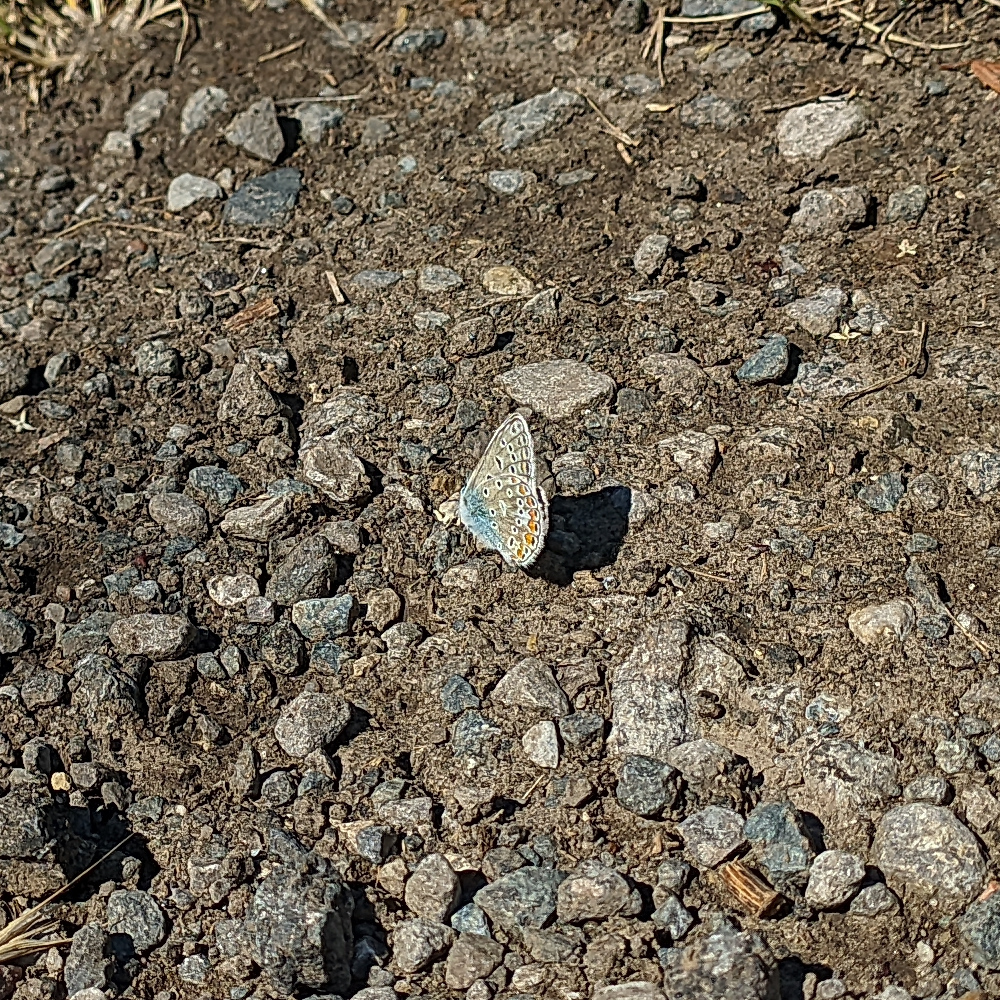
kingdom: Animalia
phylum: Arthropoda
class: Insecta
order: Lepidoptera
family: Lycaenidae
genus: Polyommatus
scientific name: Polyommatus icarus
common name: Common blue
